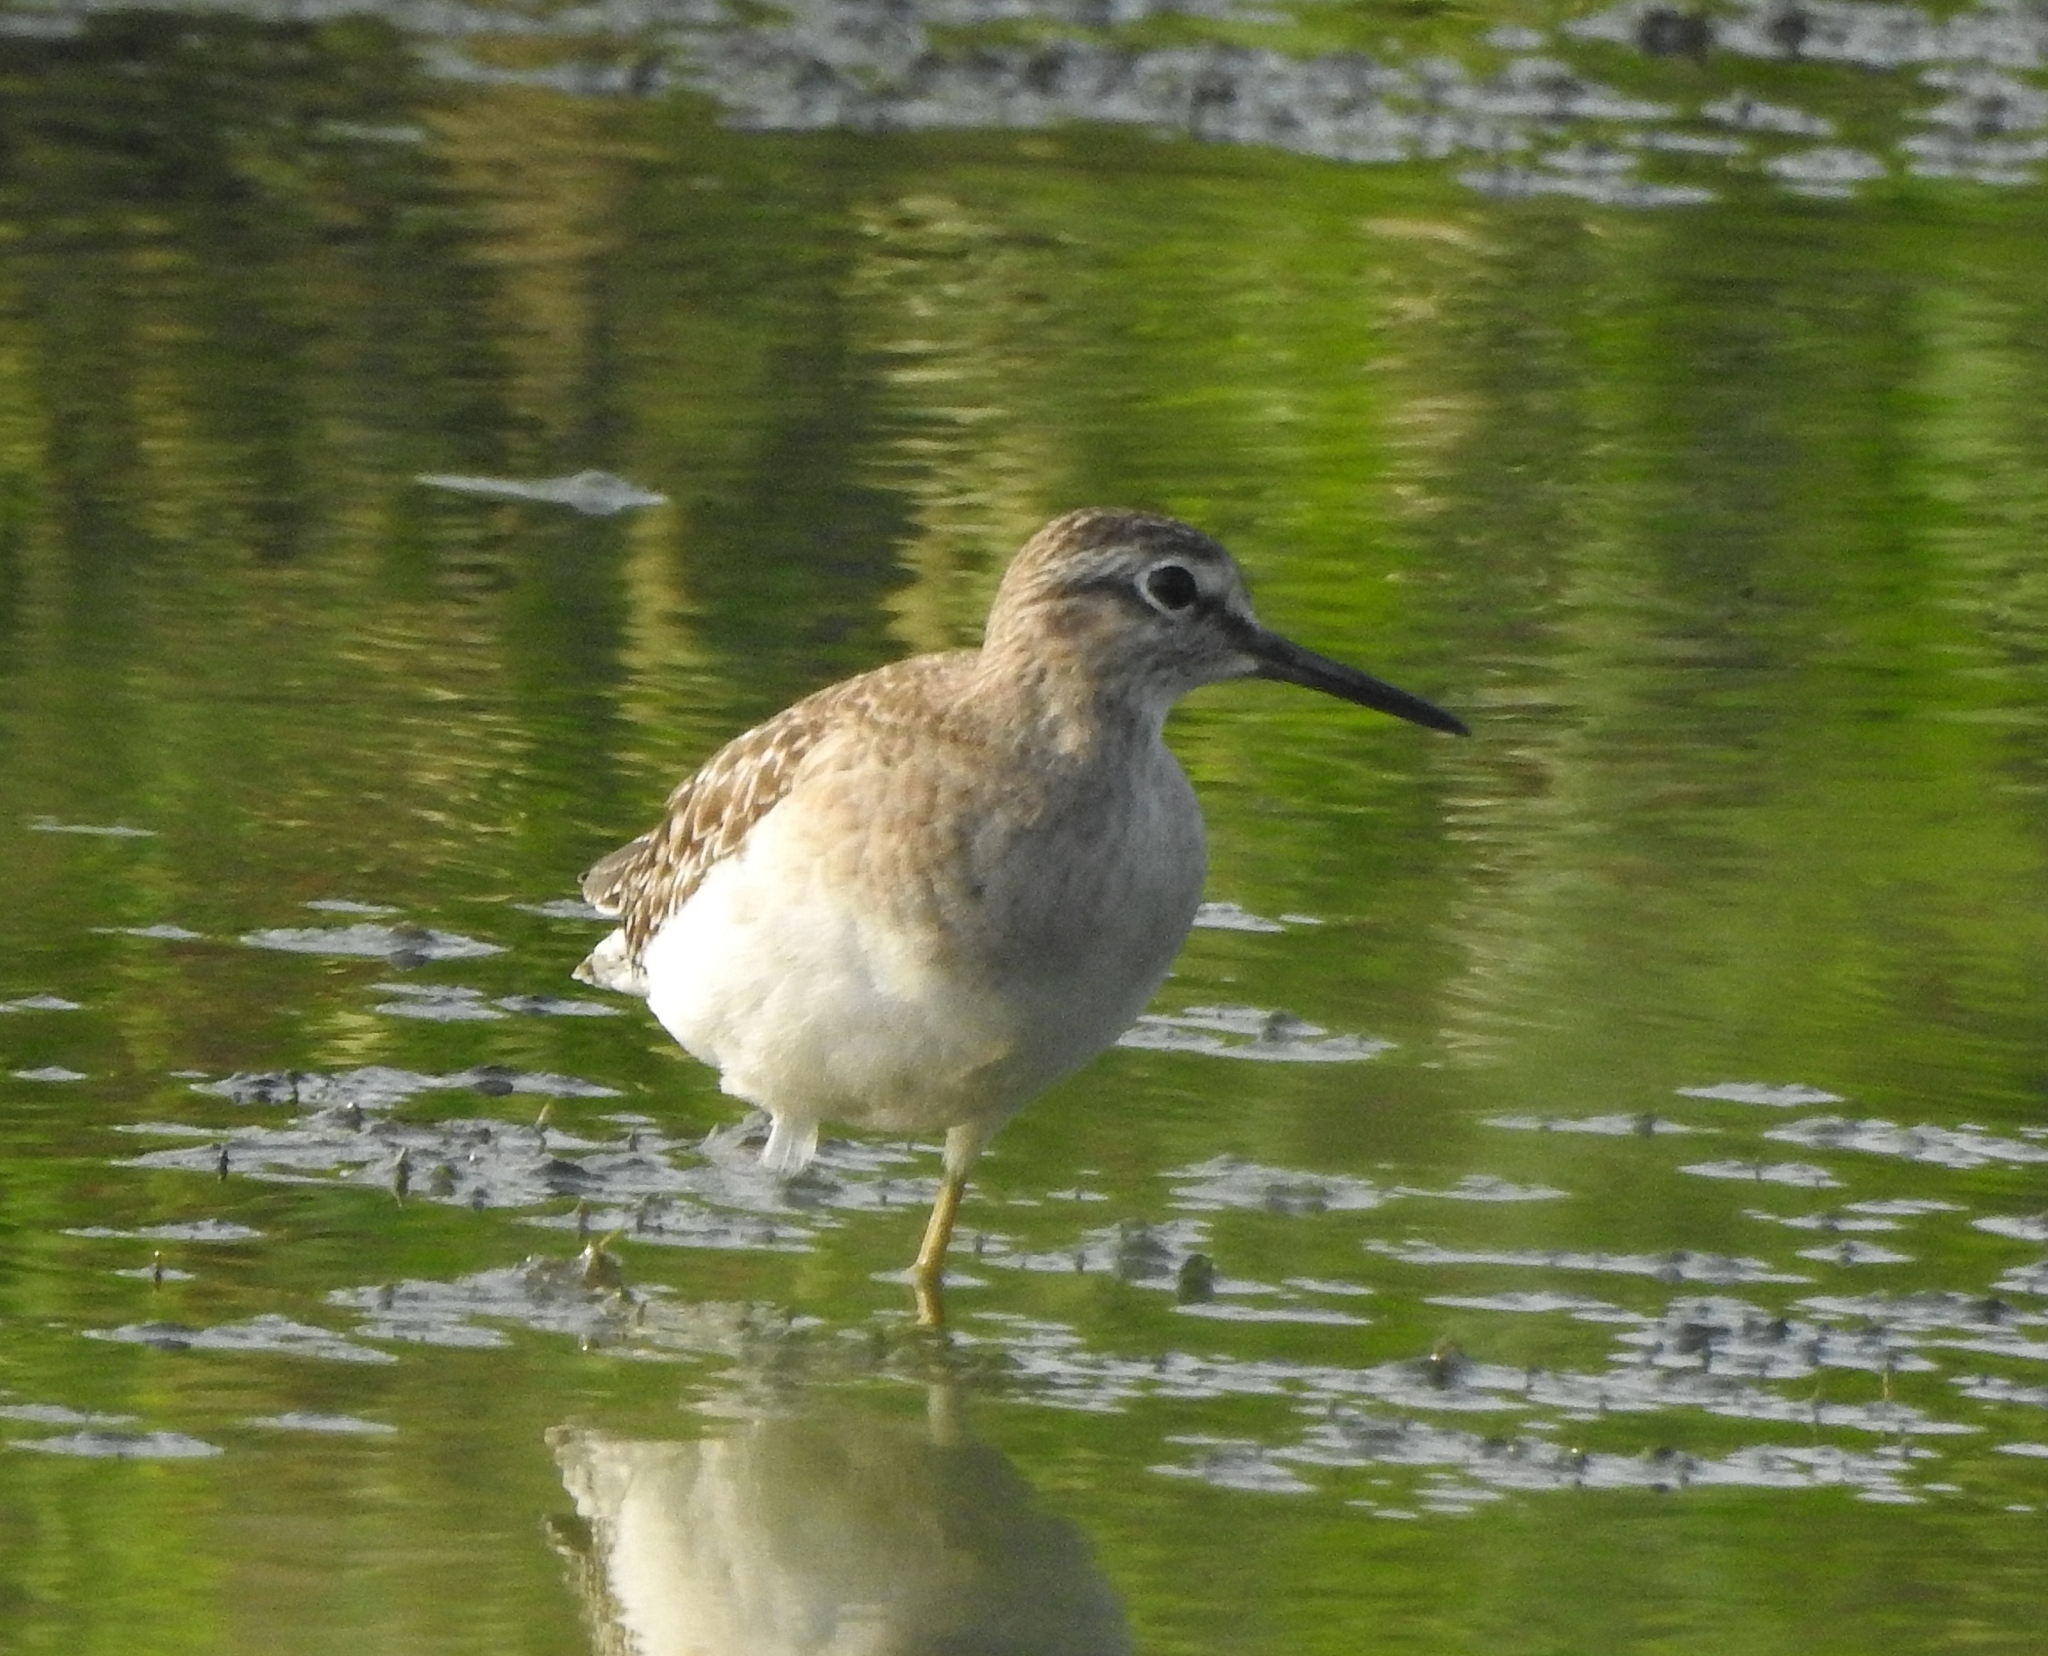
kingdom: Animalia
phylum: Chordata
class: Aves
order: Charadriiformes
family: Scolopacidae
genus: Tringa
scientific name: Tringa glareola
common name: Wood sandpiper
